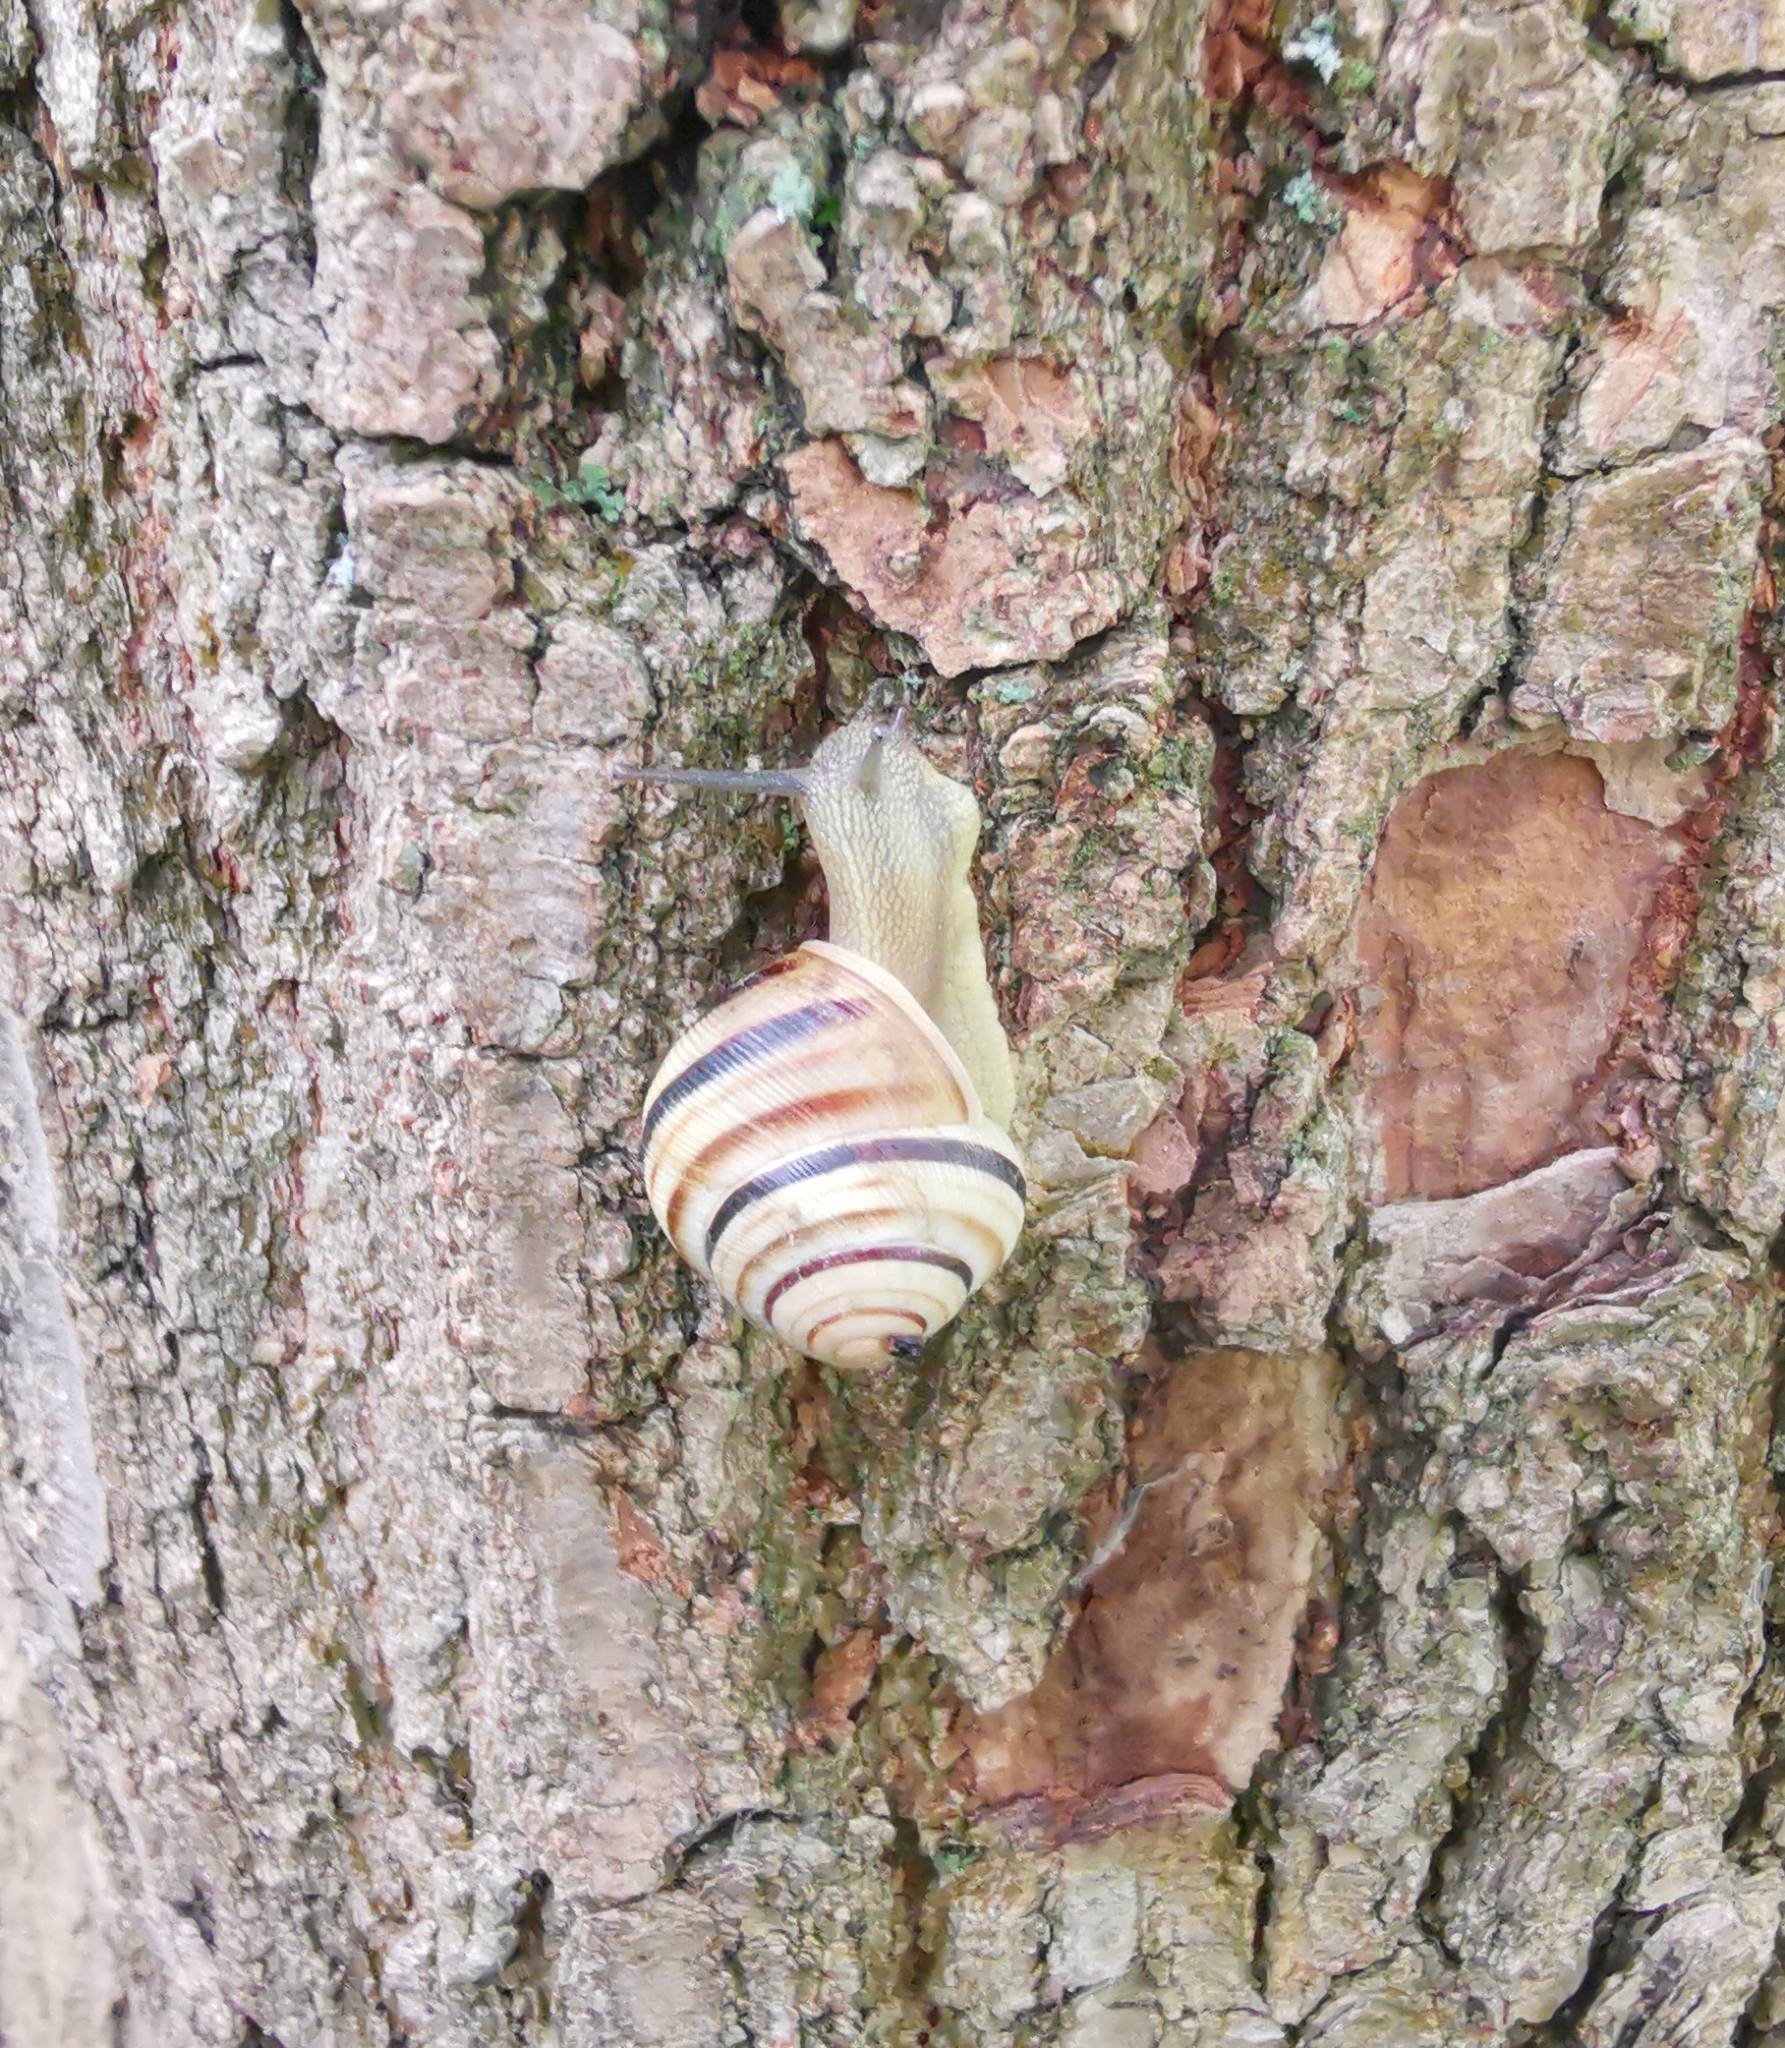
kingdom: Animalia
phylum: Mollusca
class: Gastropoda
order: Stylommatophora
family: Helicidae
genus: Caucasotachea
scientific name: Caucasotachea vindobonensis
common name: European helicid land snail
